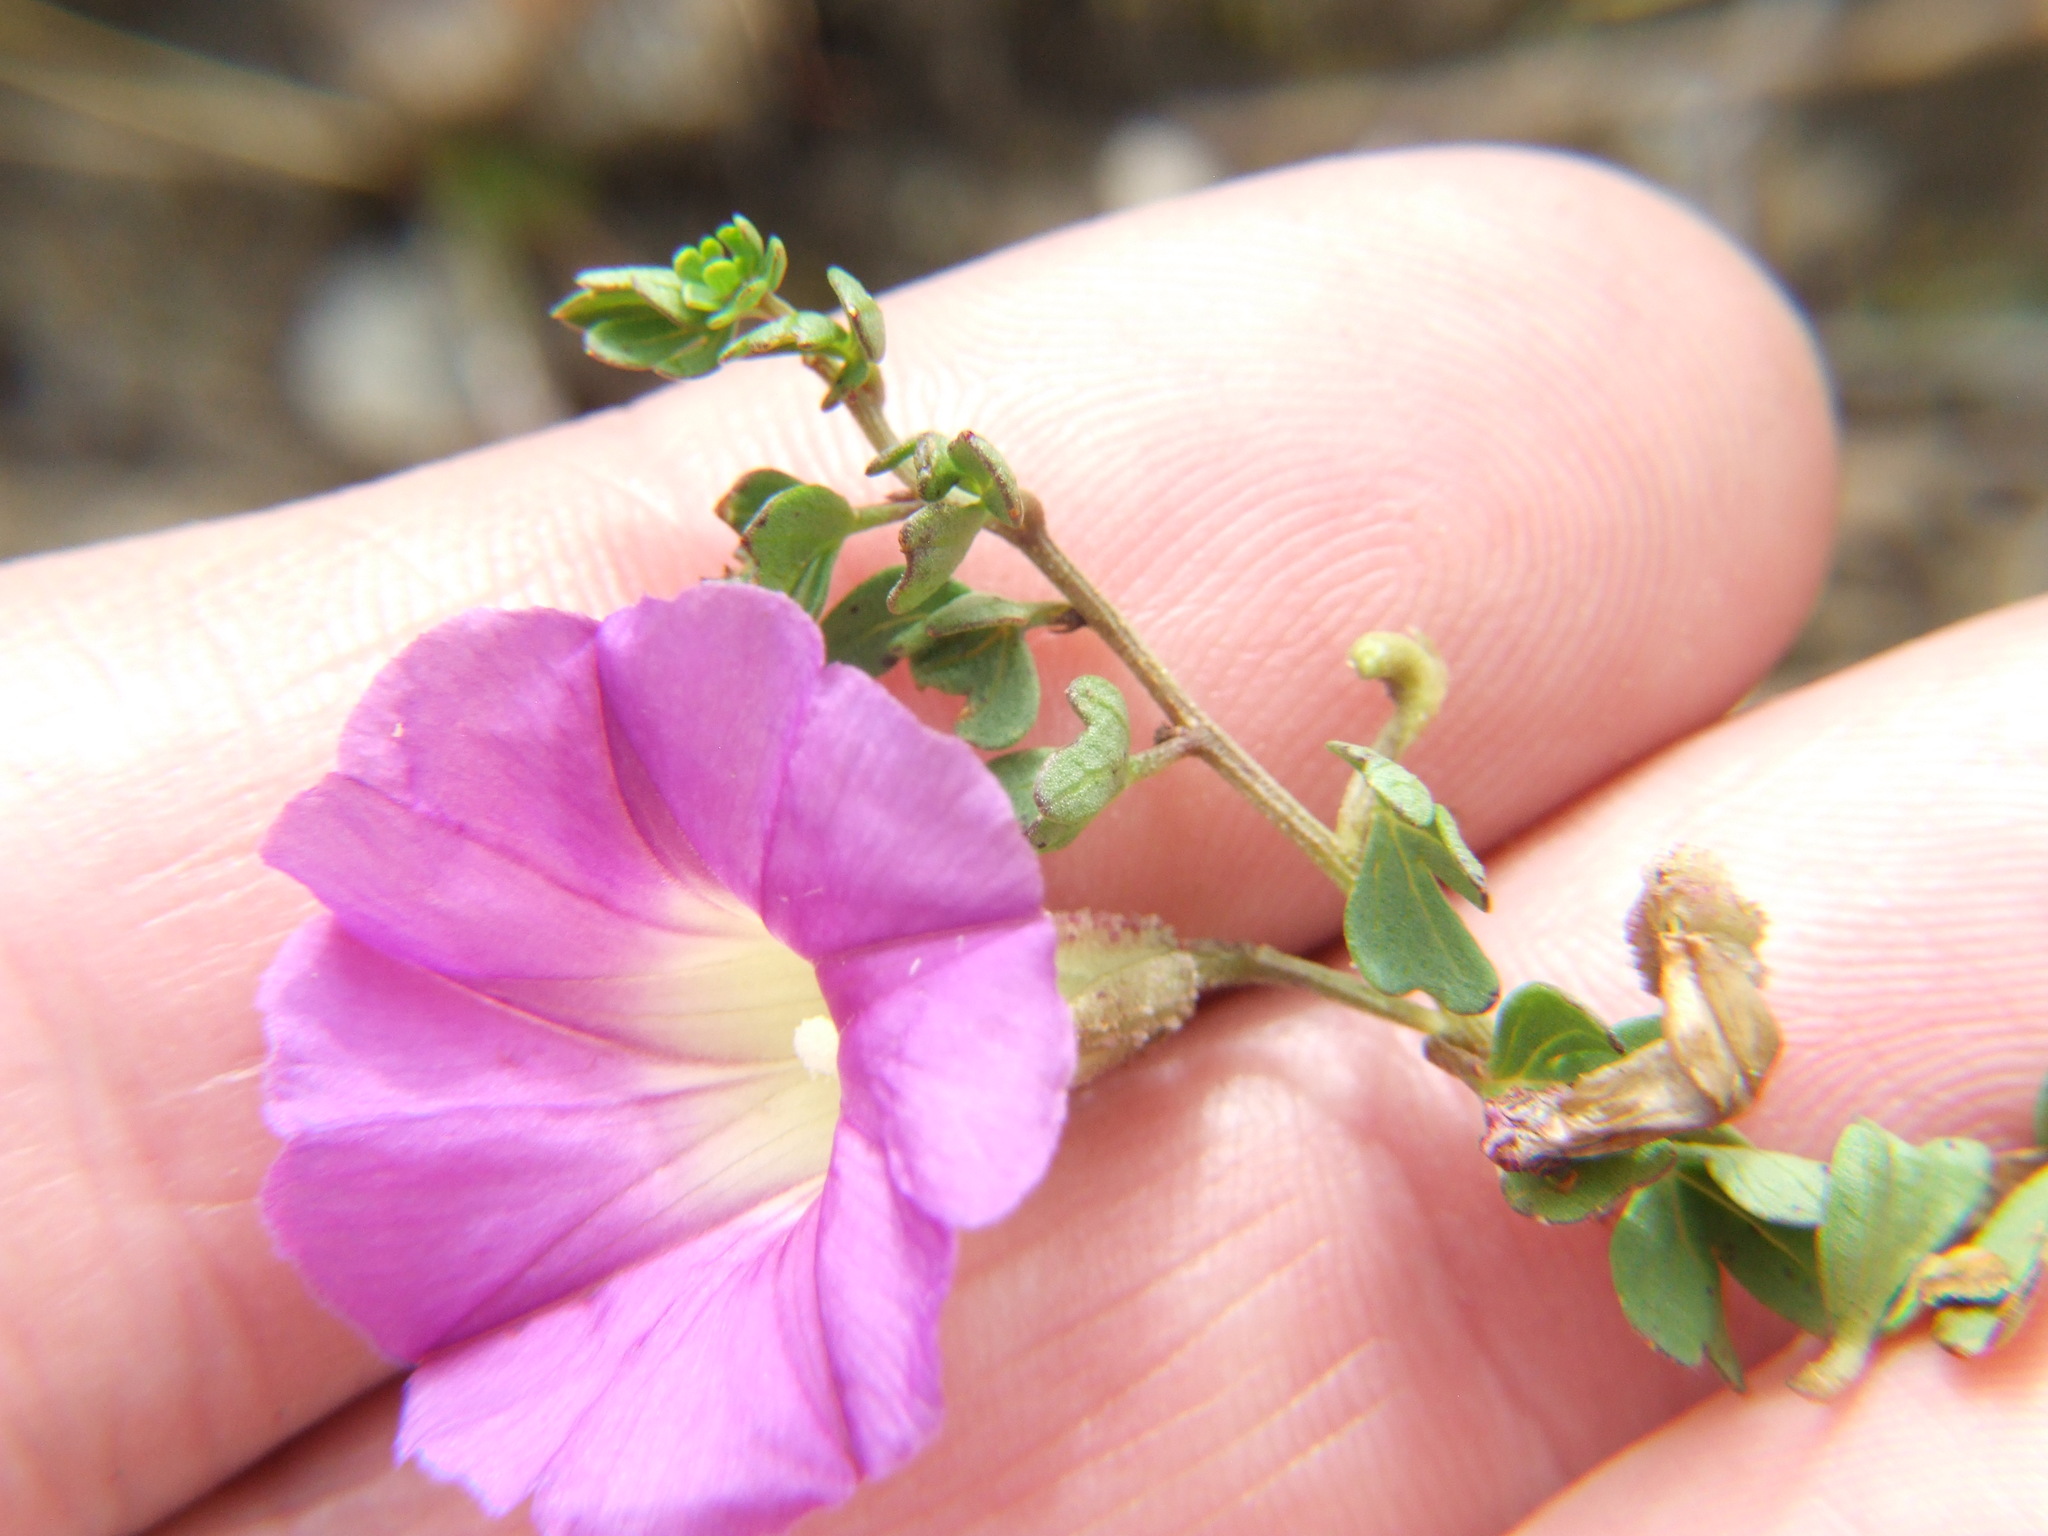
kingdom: Plantae
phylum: Tracheophyta
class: Magnoliopsida
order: Solanales
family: Convolvulaceae
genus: Ipomoea
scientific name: Ipomoea plummerae
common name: Plummer's morning-glory
